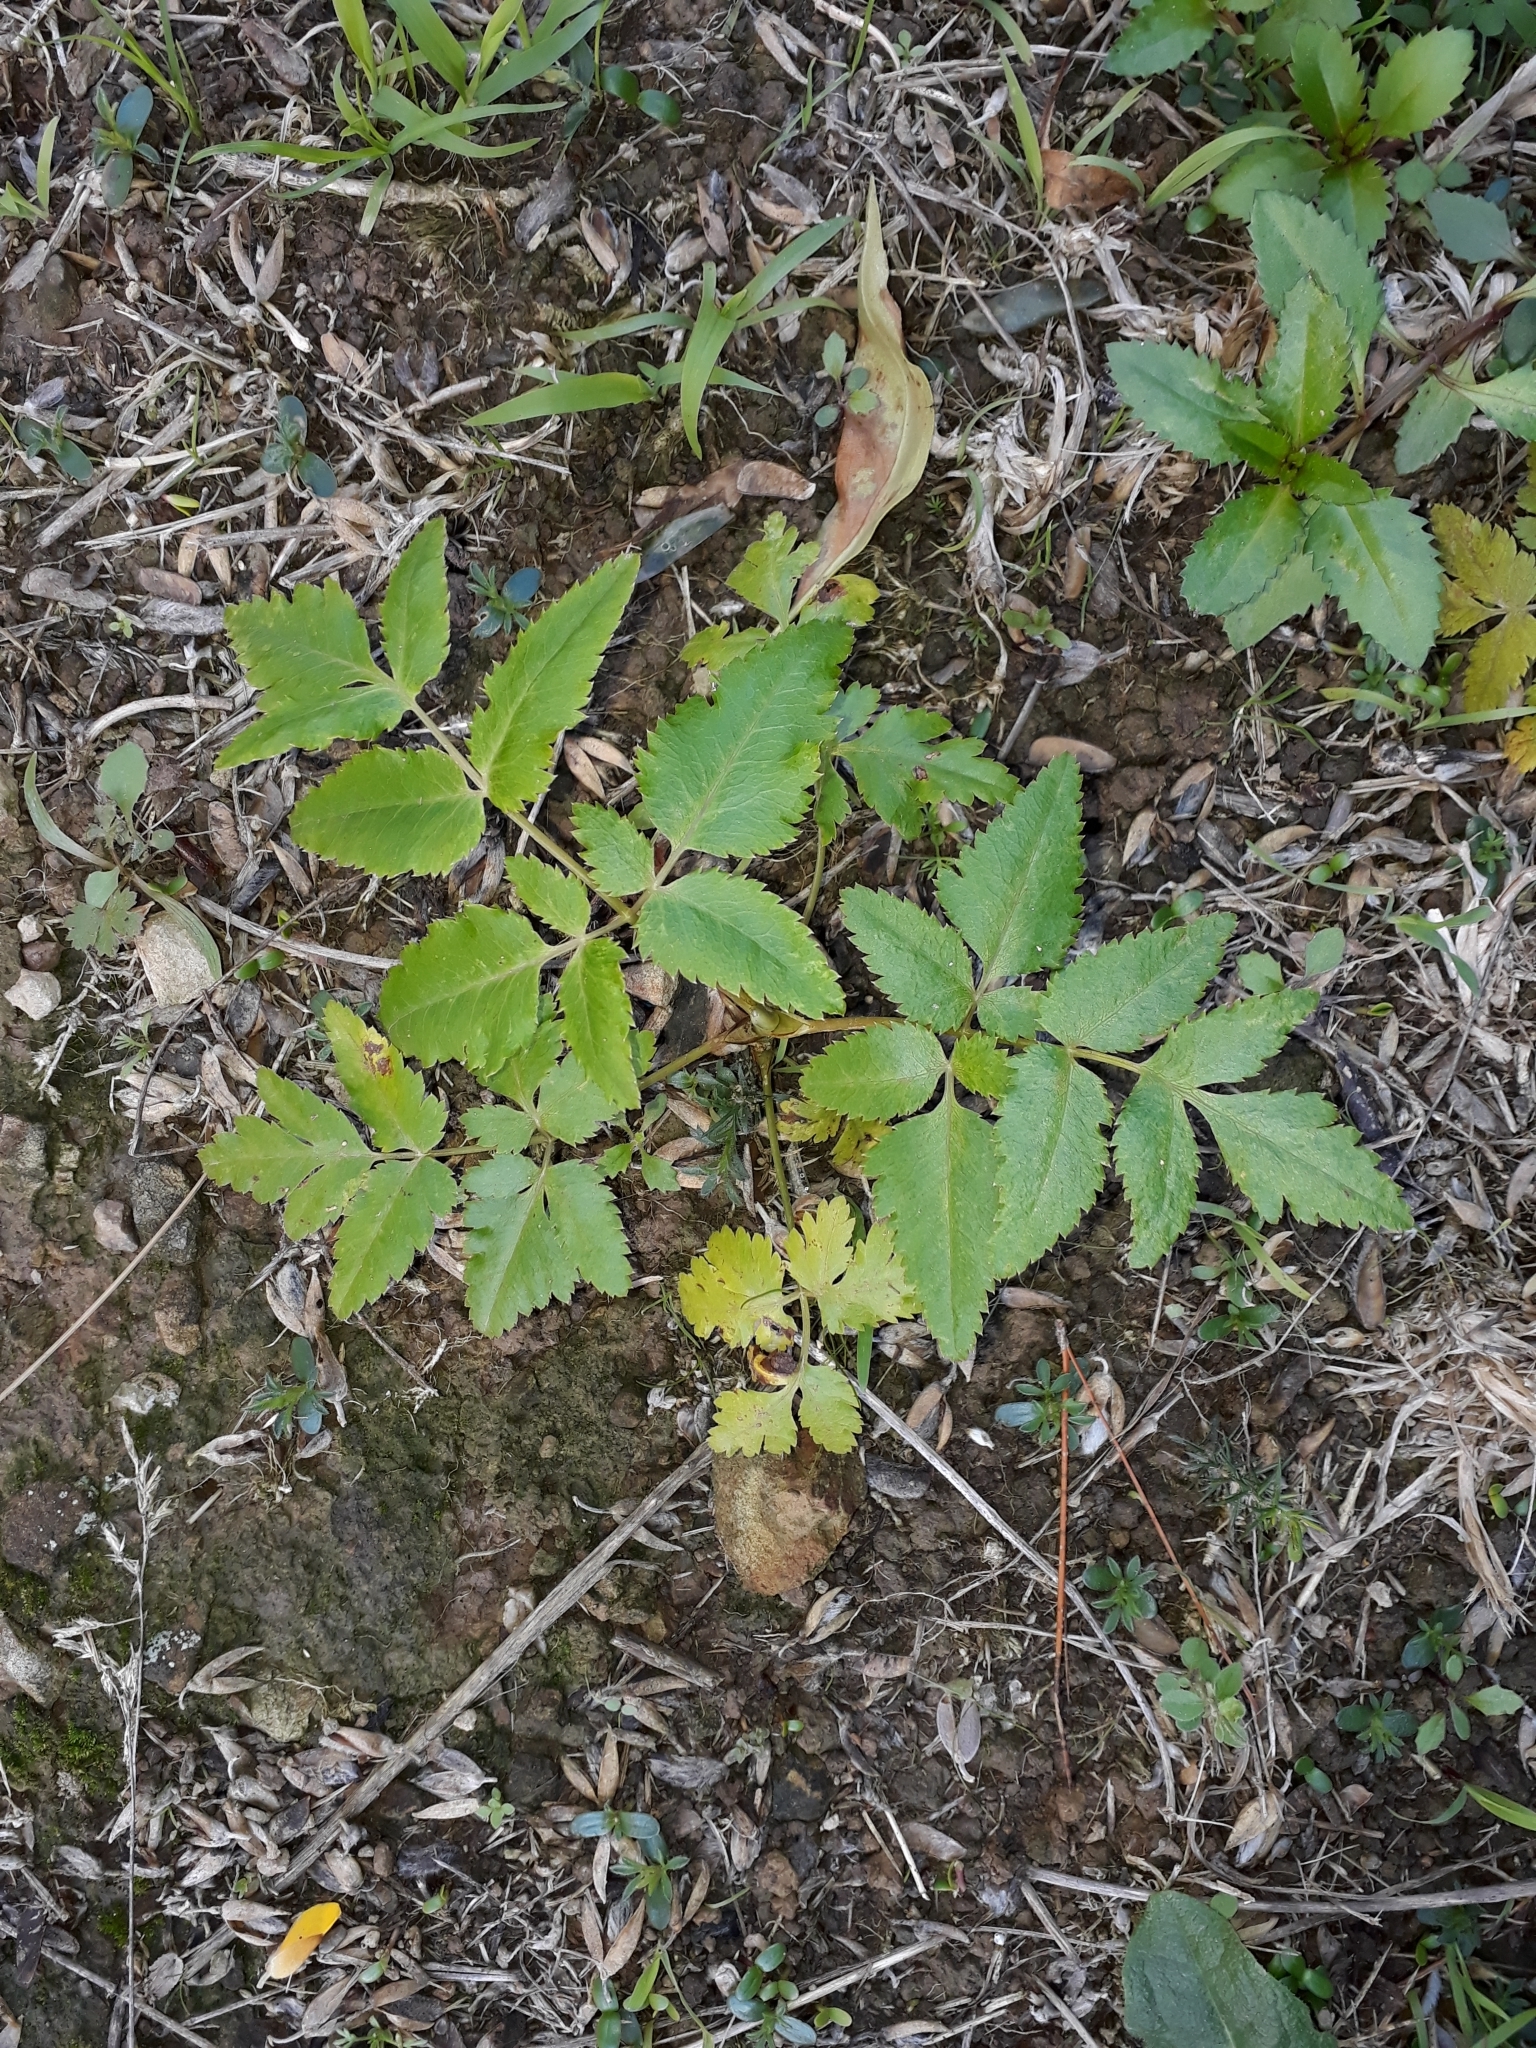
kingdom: Plantae
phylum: Tracheophyta
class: Magnoliopsida
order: Apiales
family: Apiaceae
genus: Daucus
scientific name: Daucus decipiens
